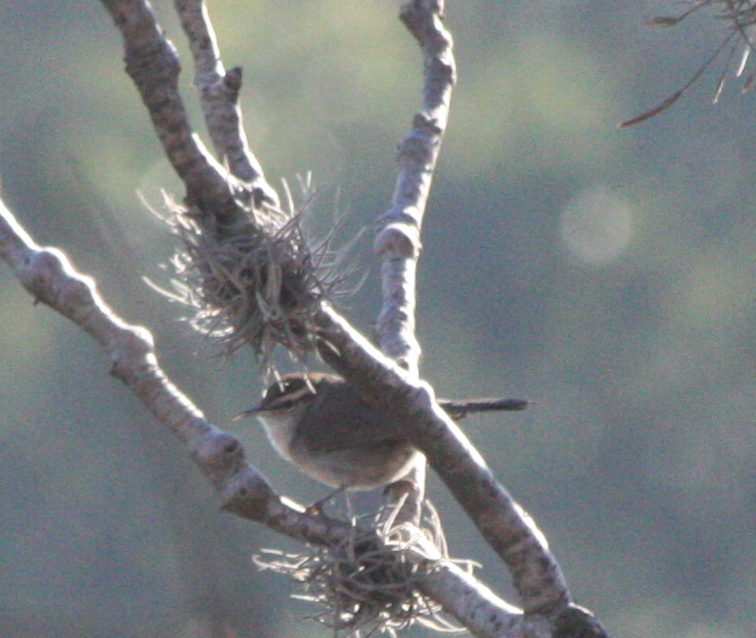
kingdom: Animalia
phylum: Chordata
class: Aves
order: Passeriformes
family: Troglodytidae
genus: Thryomanes
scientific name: Thryomanes bewickii
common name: Bewick's wren
